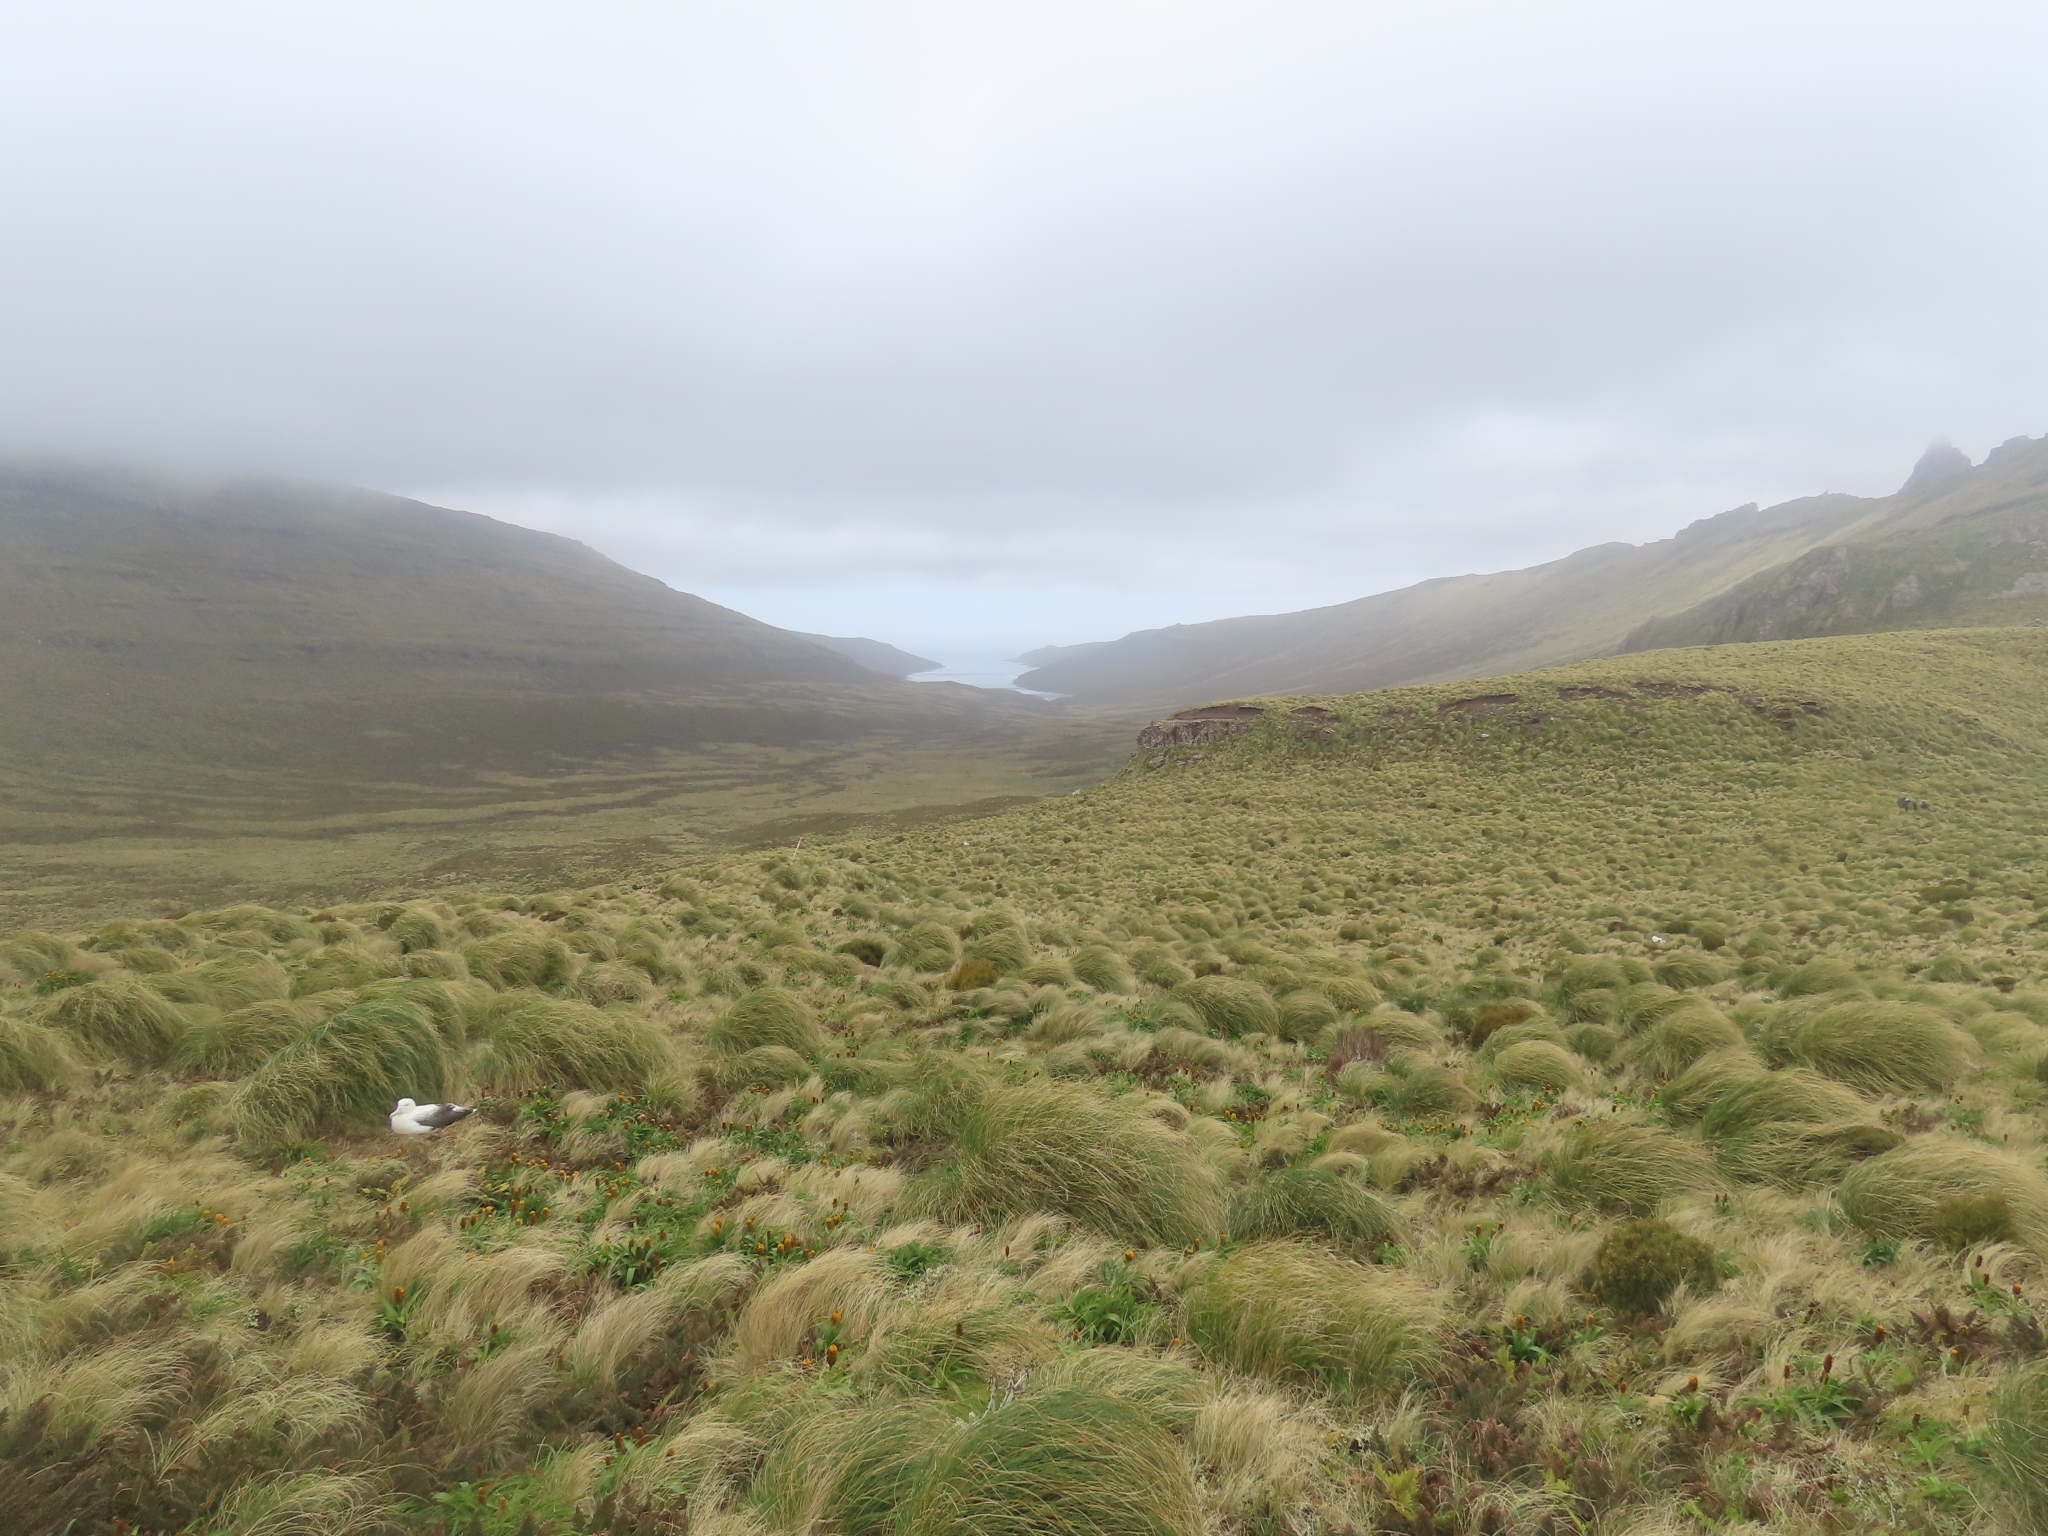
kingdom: Plantae
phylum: Tracheophyta
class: Liliopsida
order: Poales
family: Poaceae
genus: Chionochloa
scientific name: Chionochloa antarctica
